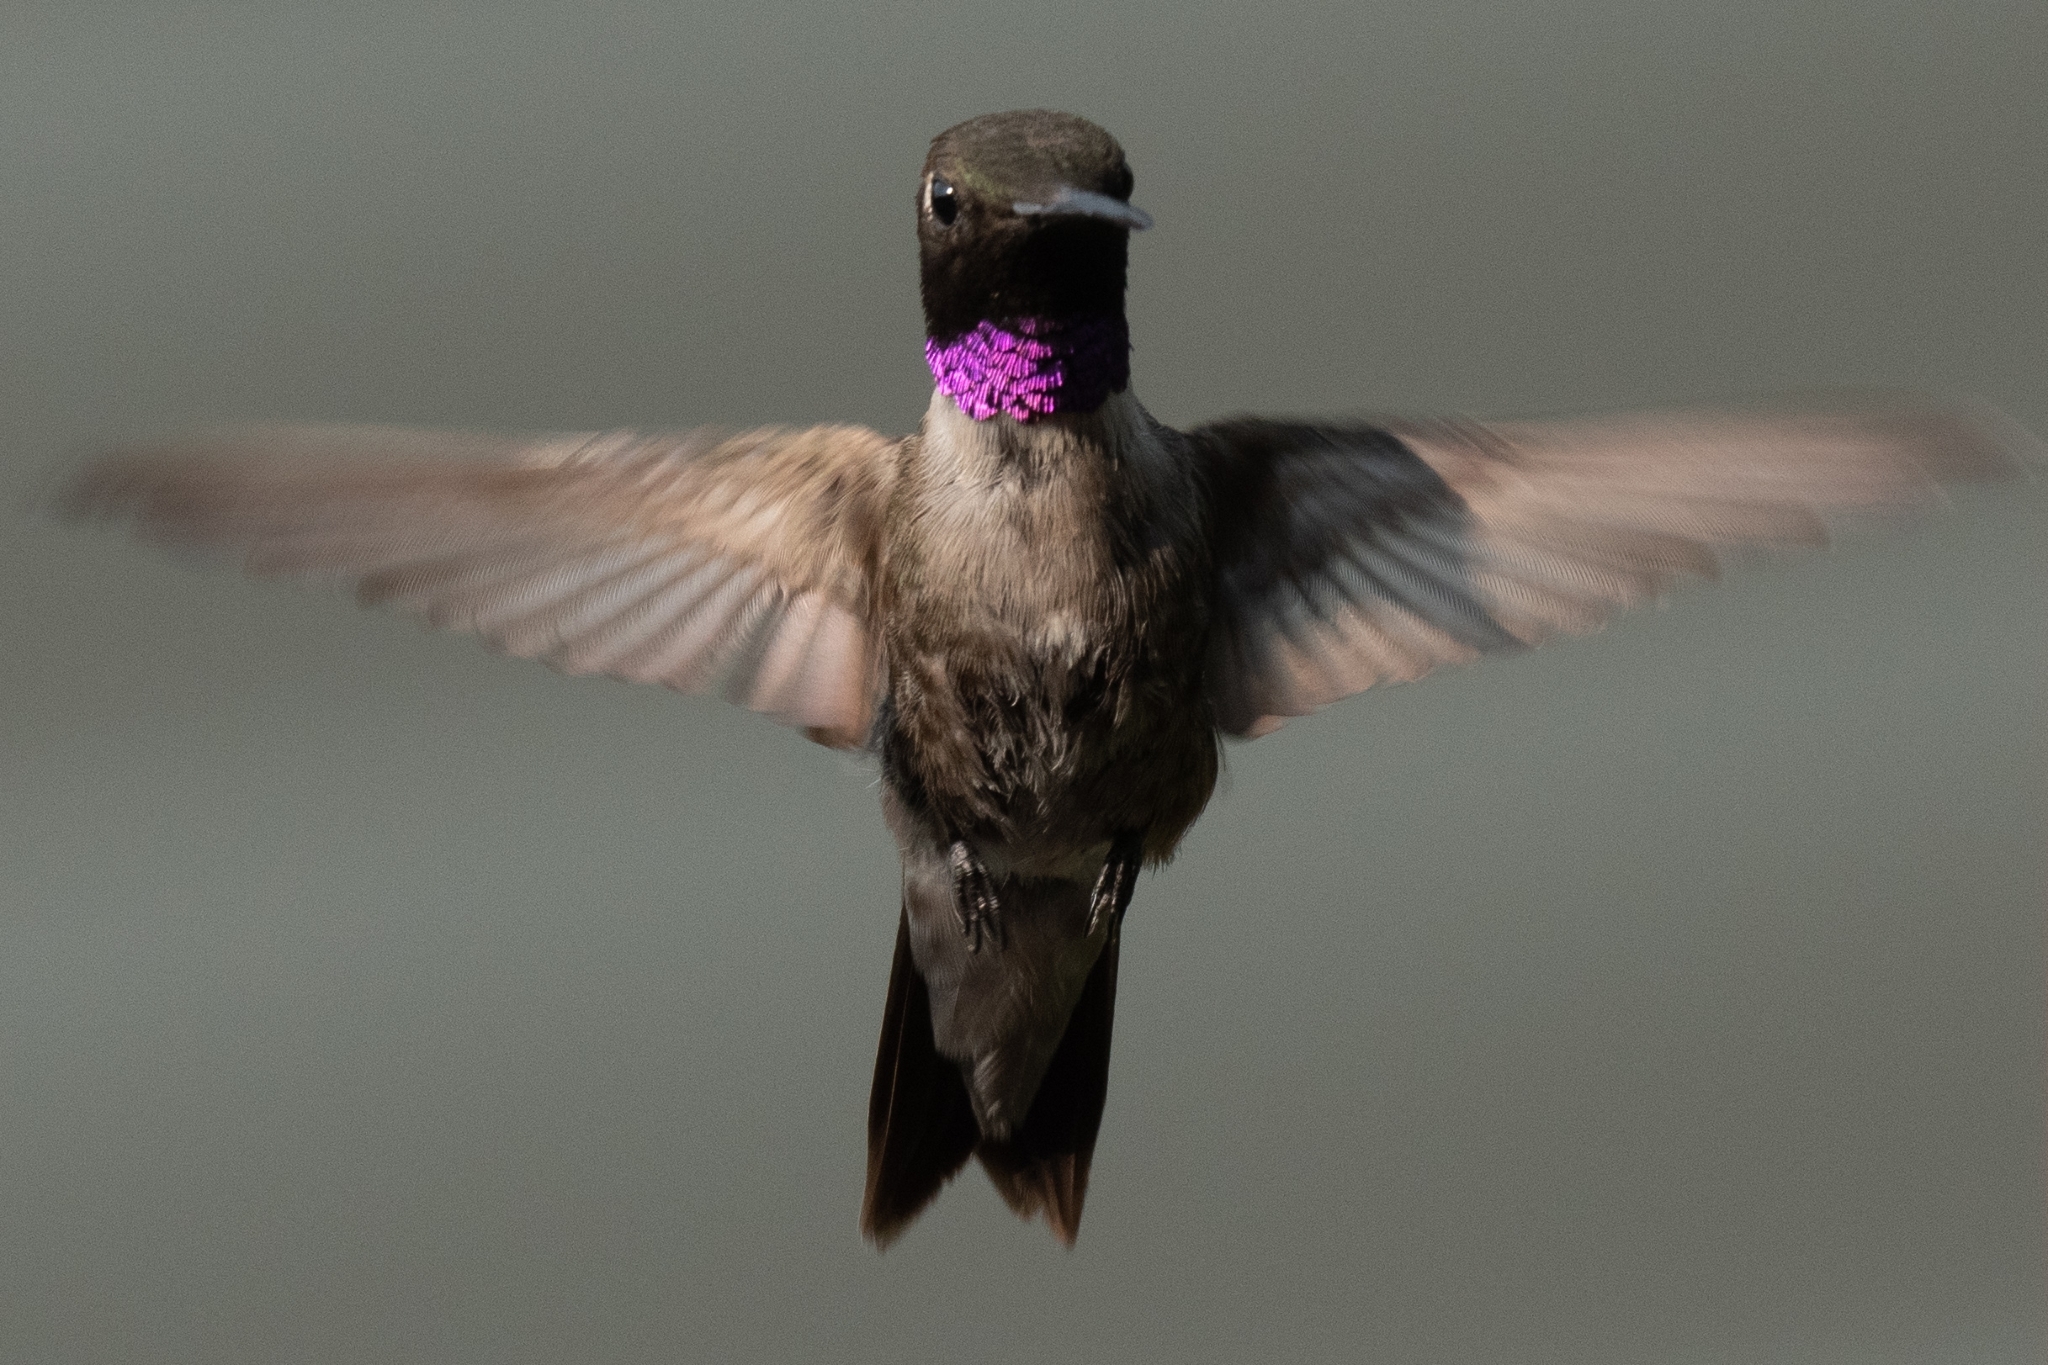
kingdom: Animalia
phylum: Chordata
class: Aves
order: Apodiformes
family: Trochilidae
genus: Archilochus
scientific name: Archilochus alexandri
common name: Black-chinned hummingbird
